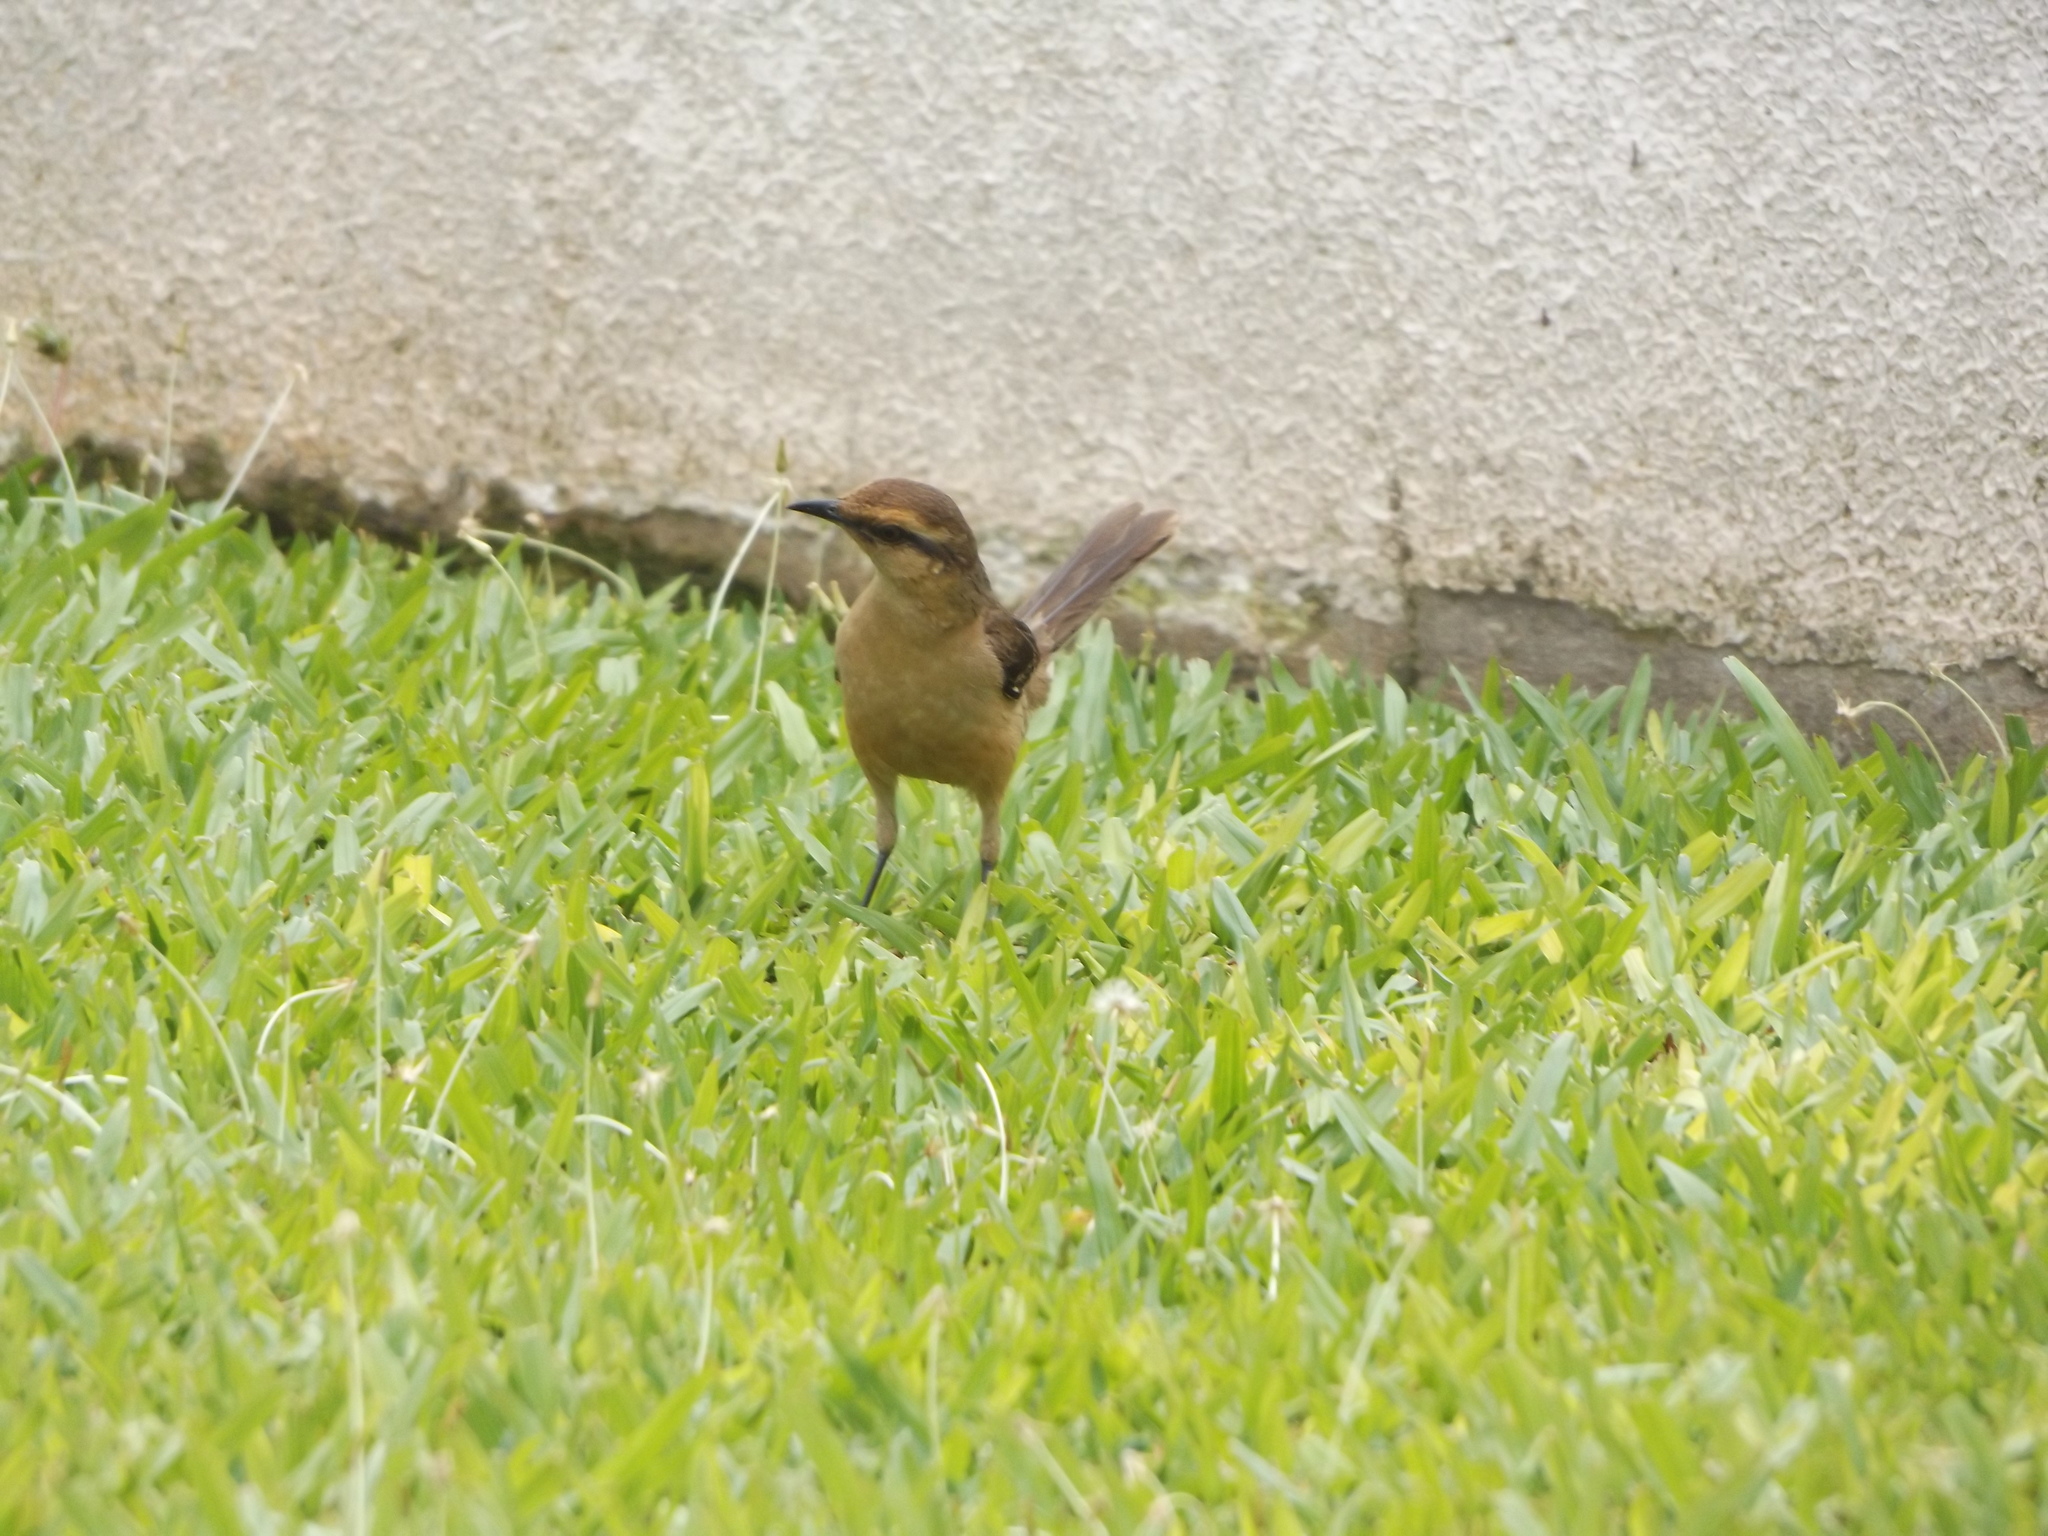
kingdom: Animalia
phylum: Chordata
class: Aves
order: Passeriformes
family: Mimidae
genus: Mimus
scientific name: Mimus saturninus
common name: Chalk-browed mockingbird
